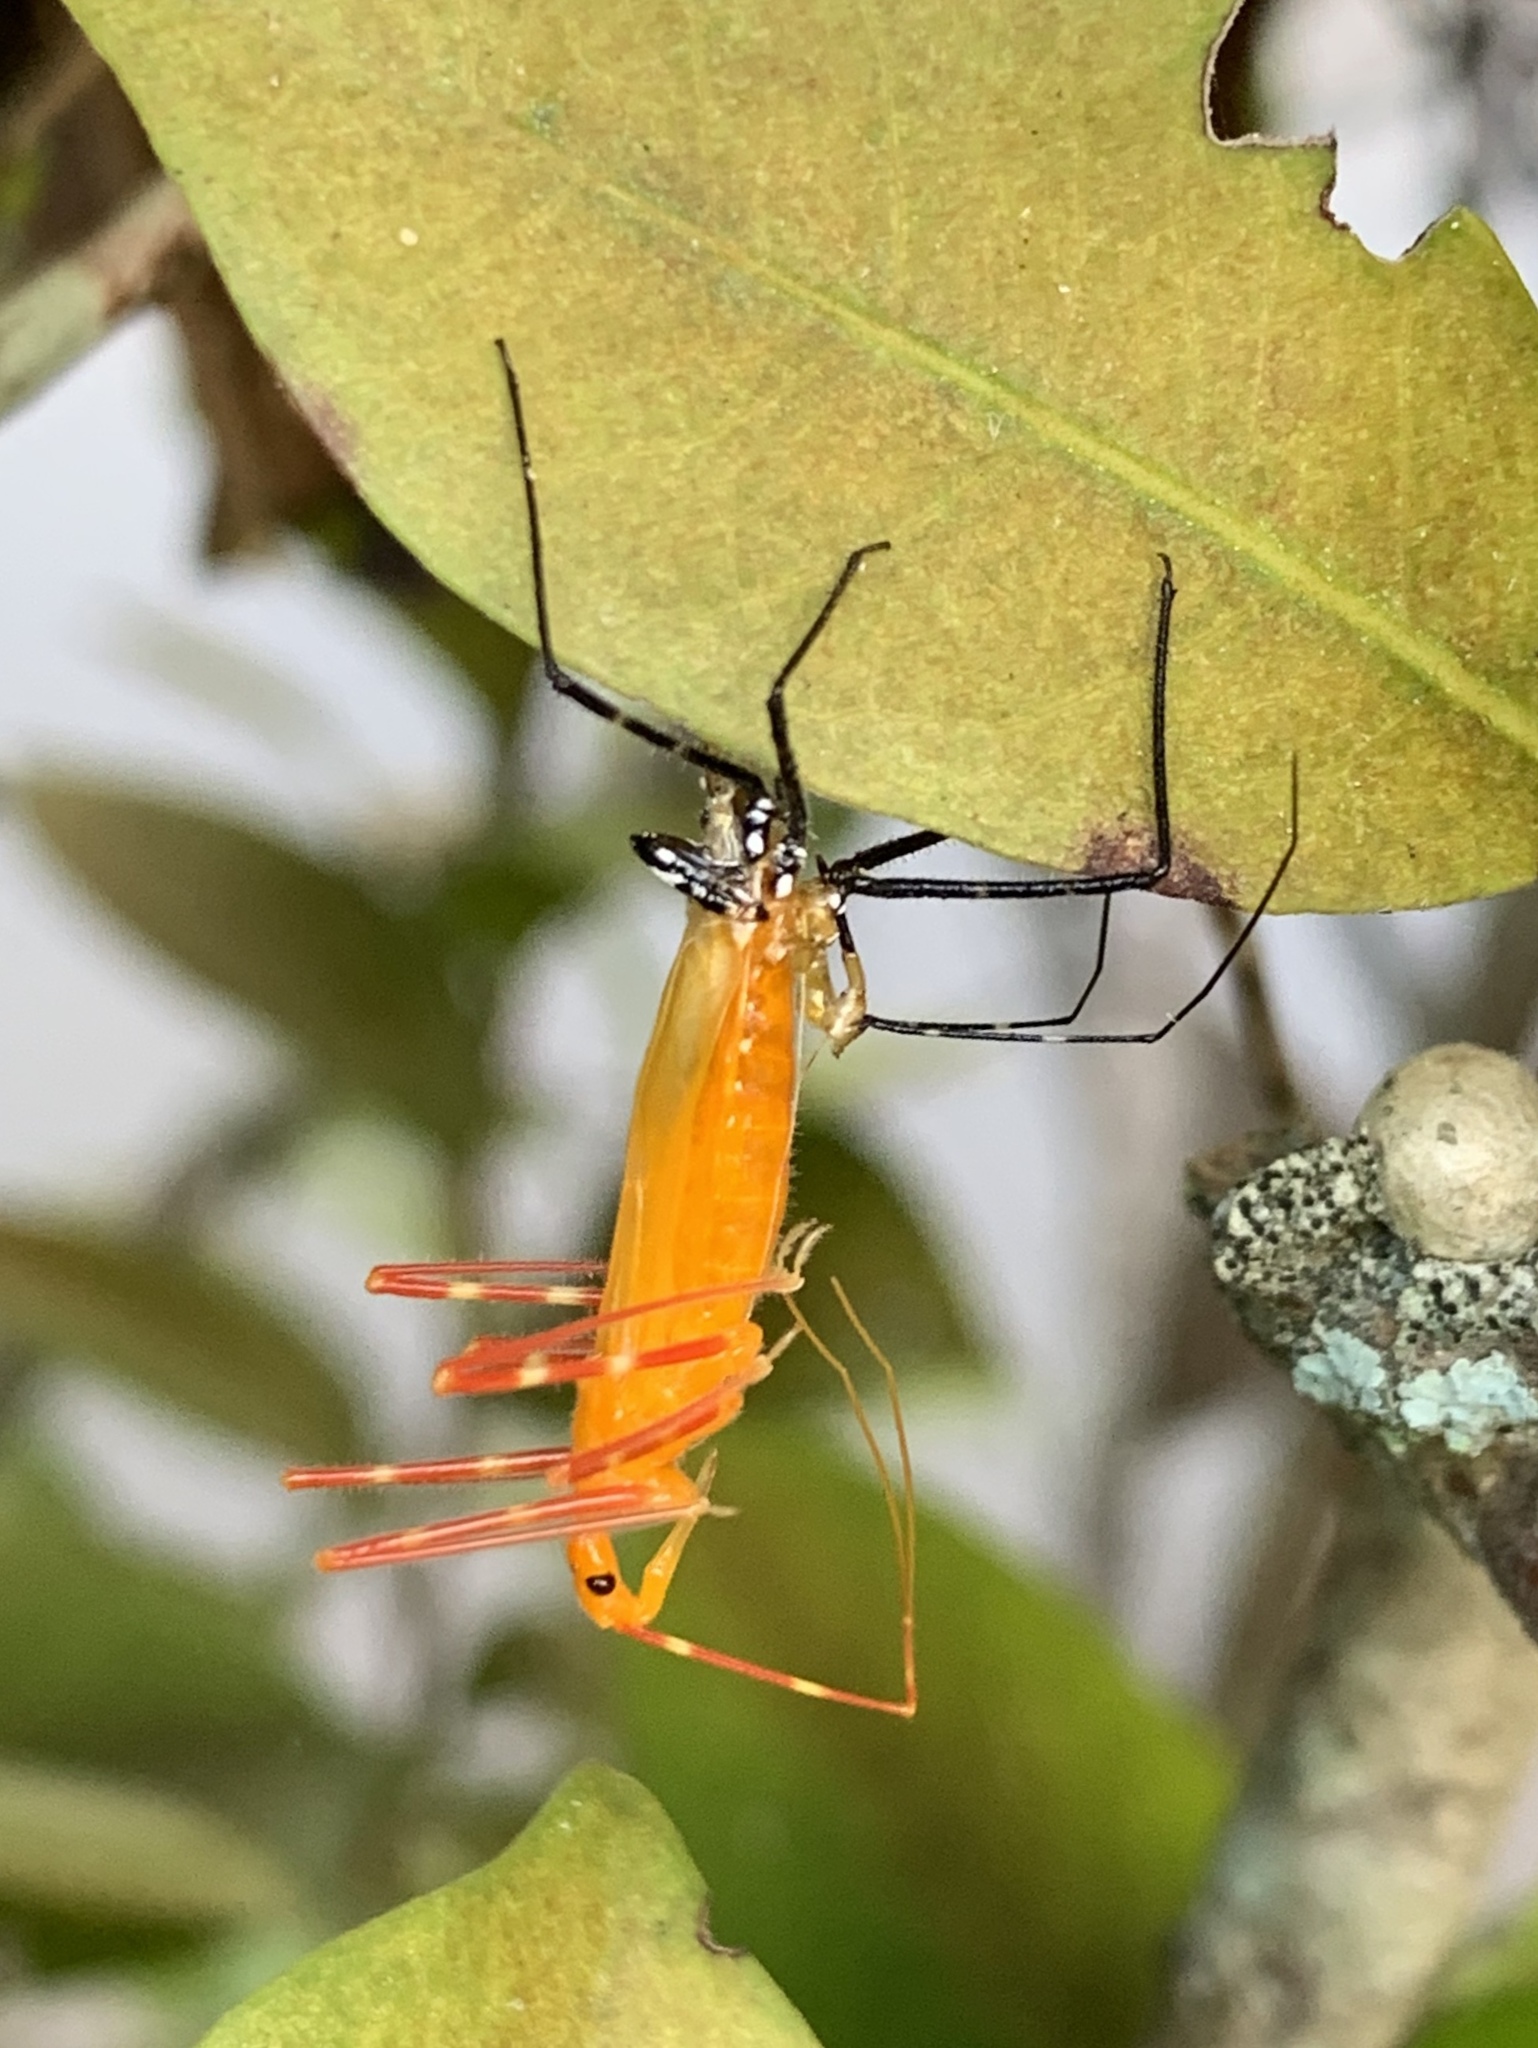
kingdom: Animalia
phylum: Arthropoda
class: Insecta
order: Hemiptera
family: Reduviidae
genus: Zelus
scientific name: Zelus longipes
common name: Milkweed assassin bug
